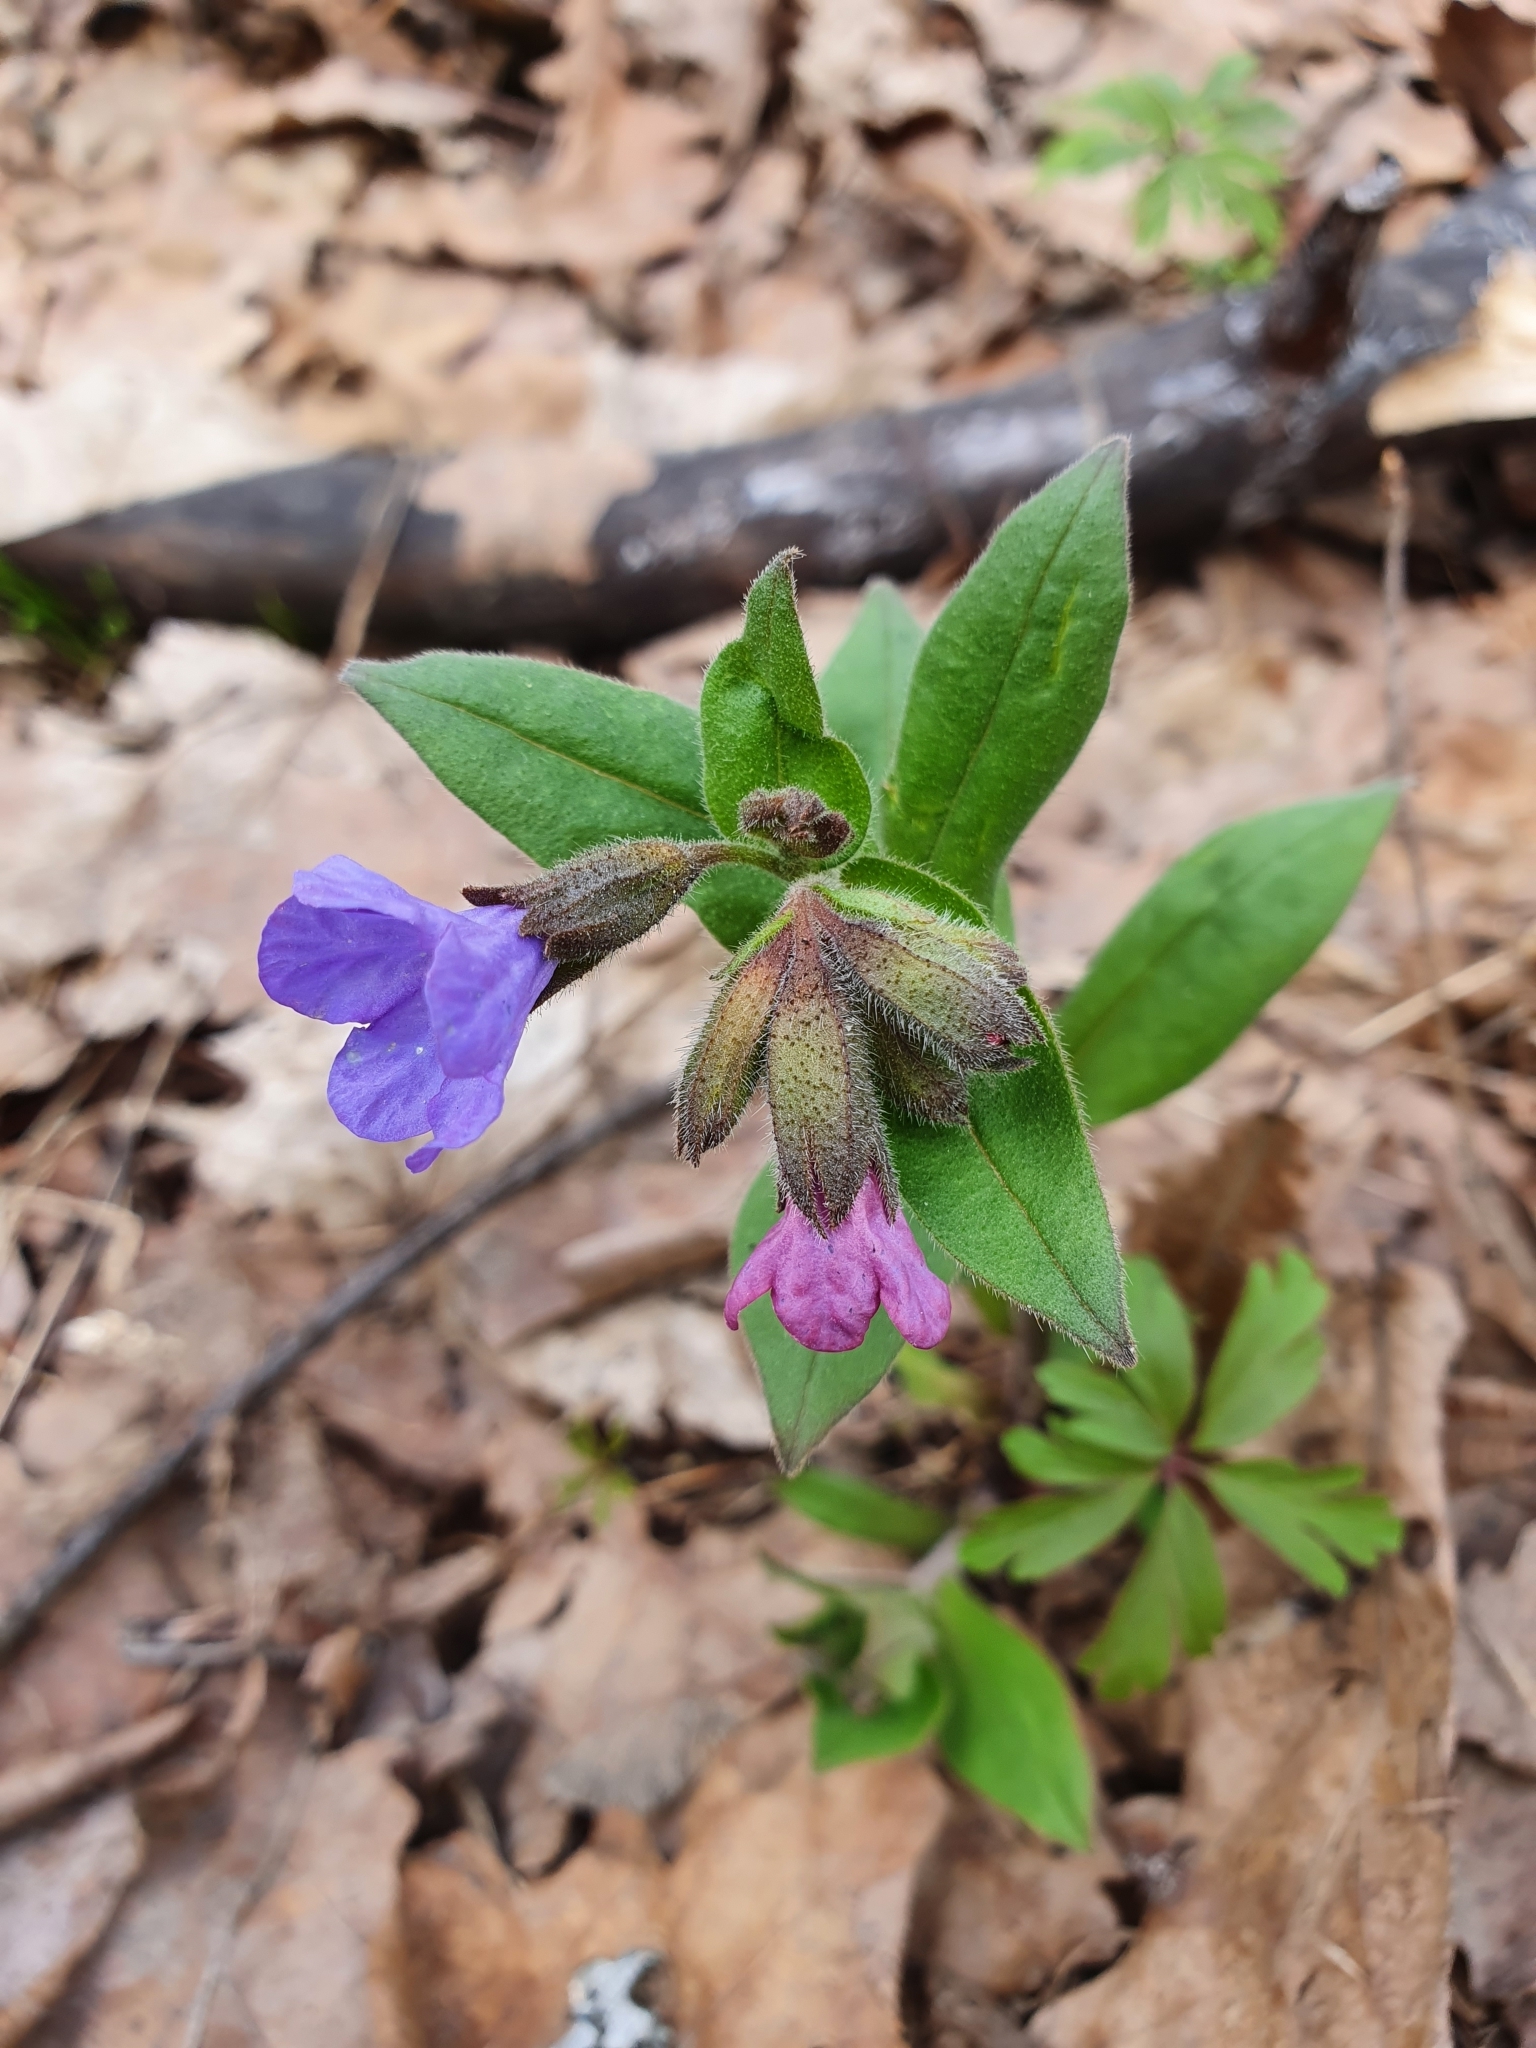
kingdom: Plantae
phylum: Tracheophyta
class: Magnoliopsida
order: Boraginales
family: Boraginaceae
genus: Pulmonaria
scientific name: Pulmonaria obscura
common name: Suffolk lungwort
